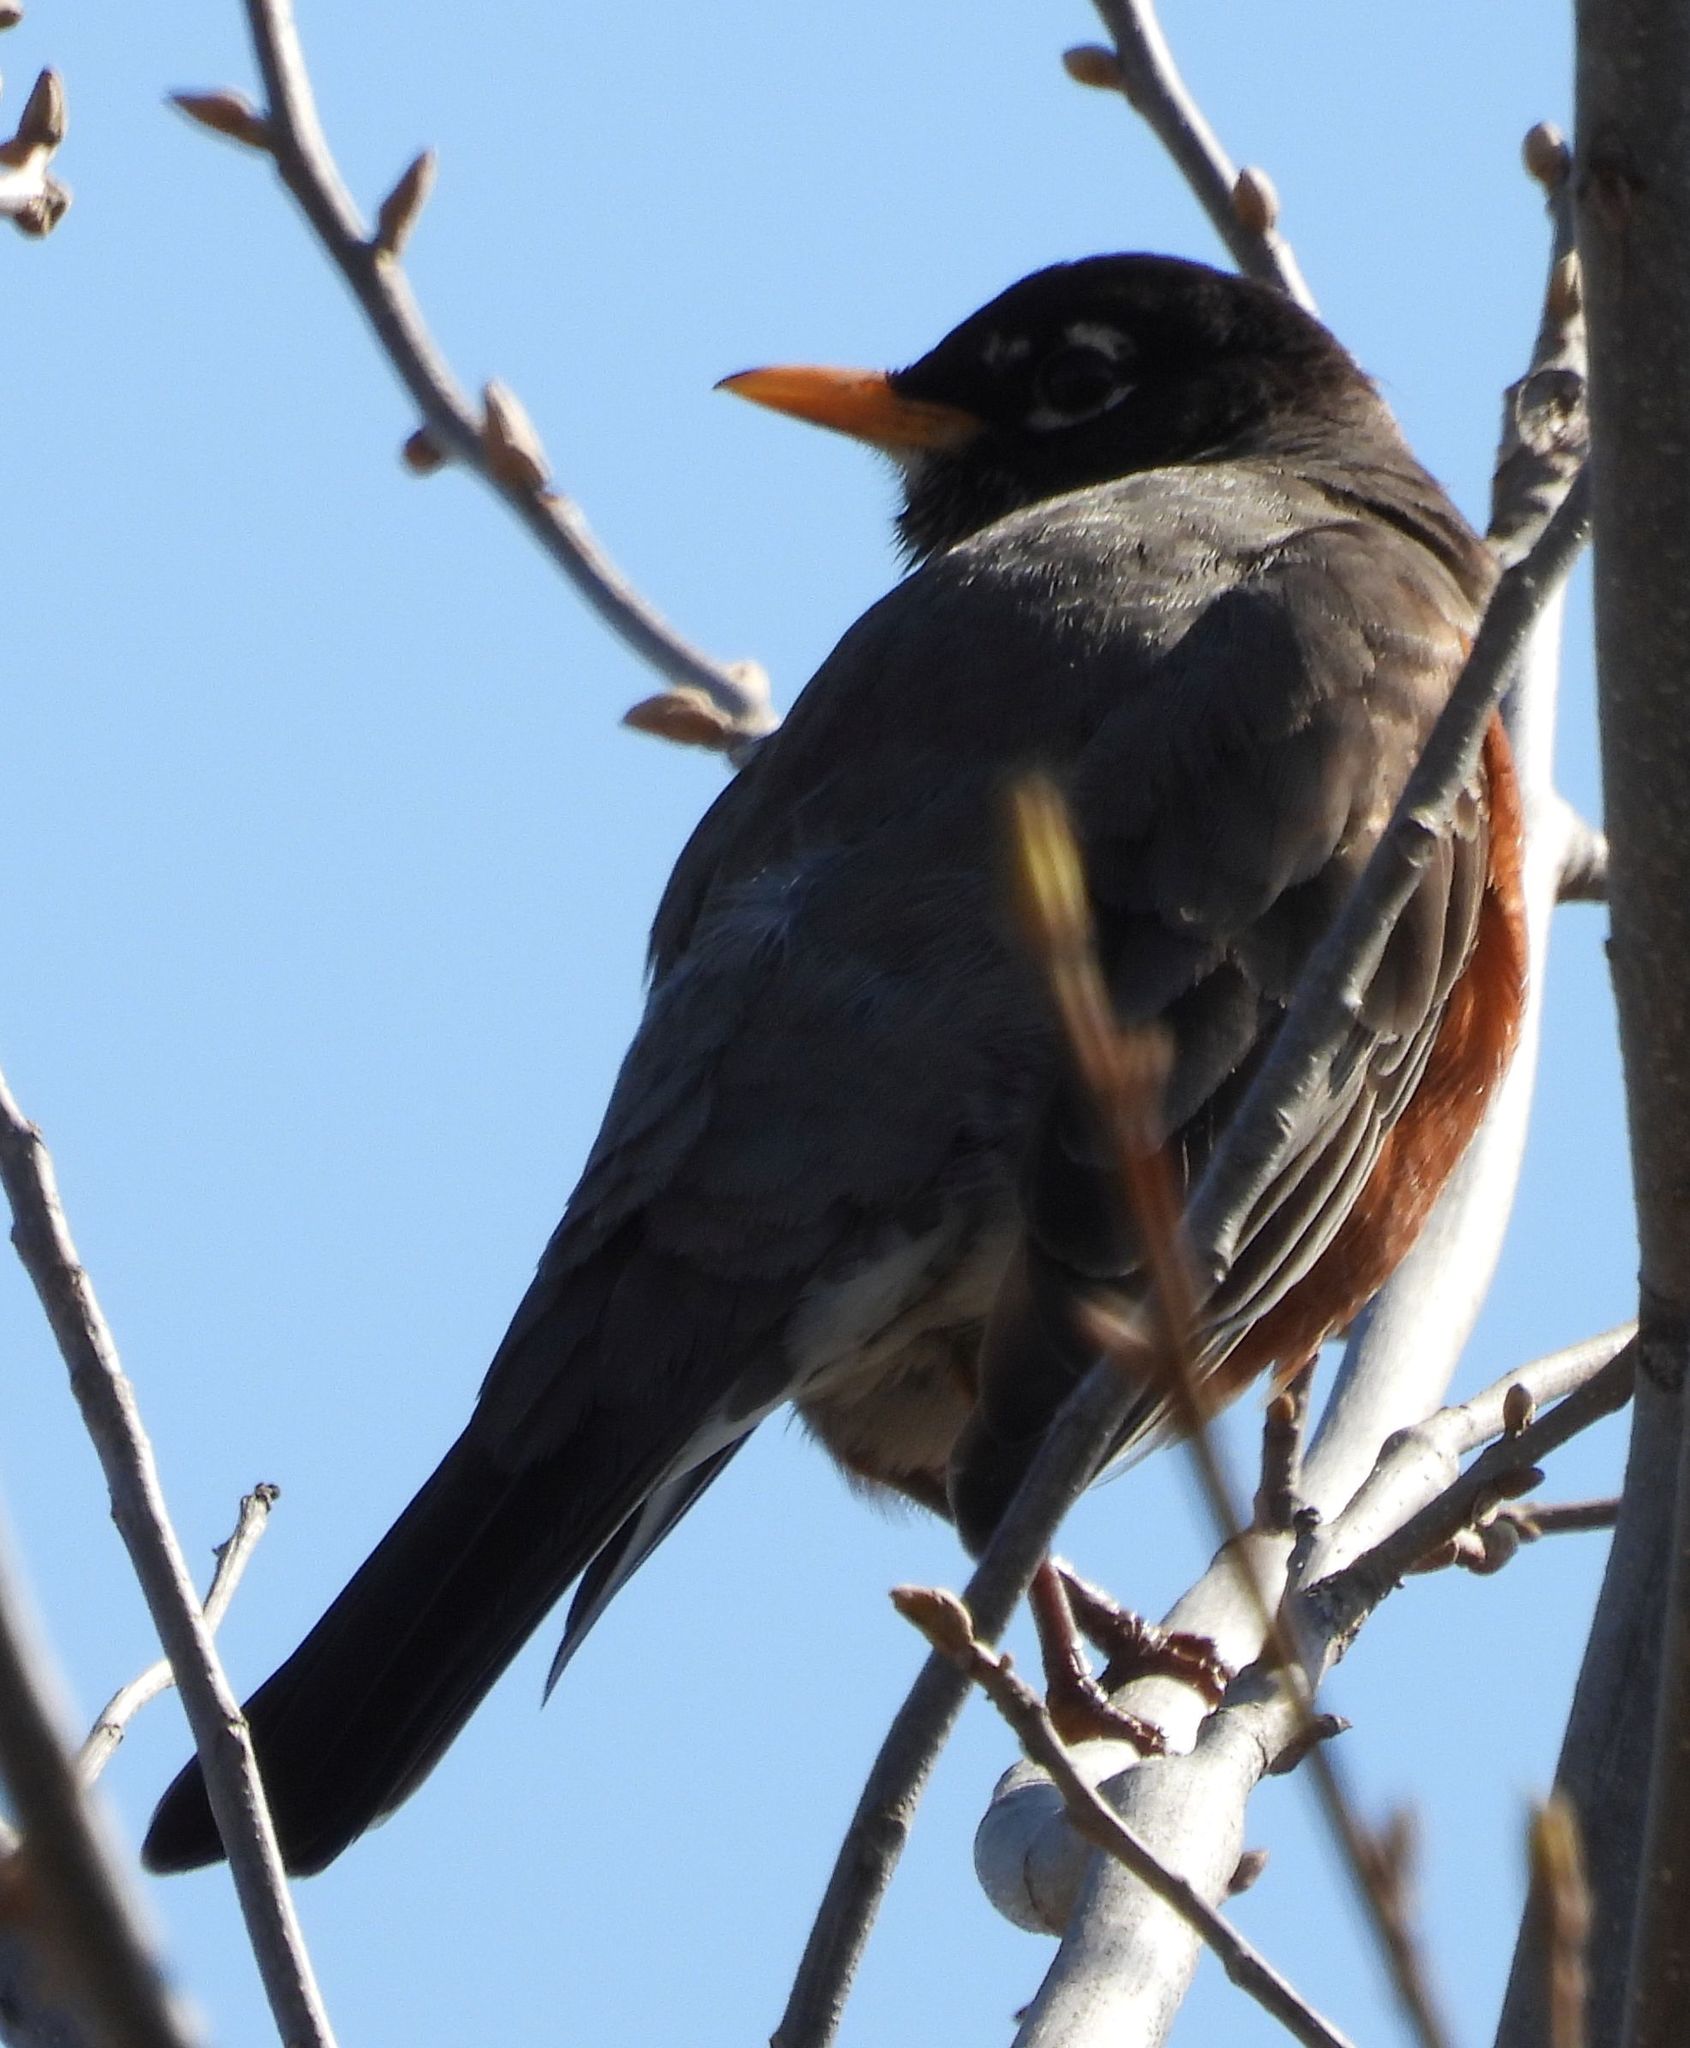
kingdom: Animalia
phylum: Chordata
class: Aves
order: Passeriformes
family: Turdidae
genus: Turdus
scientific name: Turdus migratorius
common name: American robin
